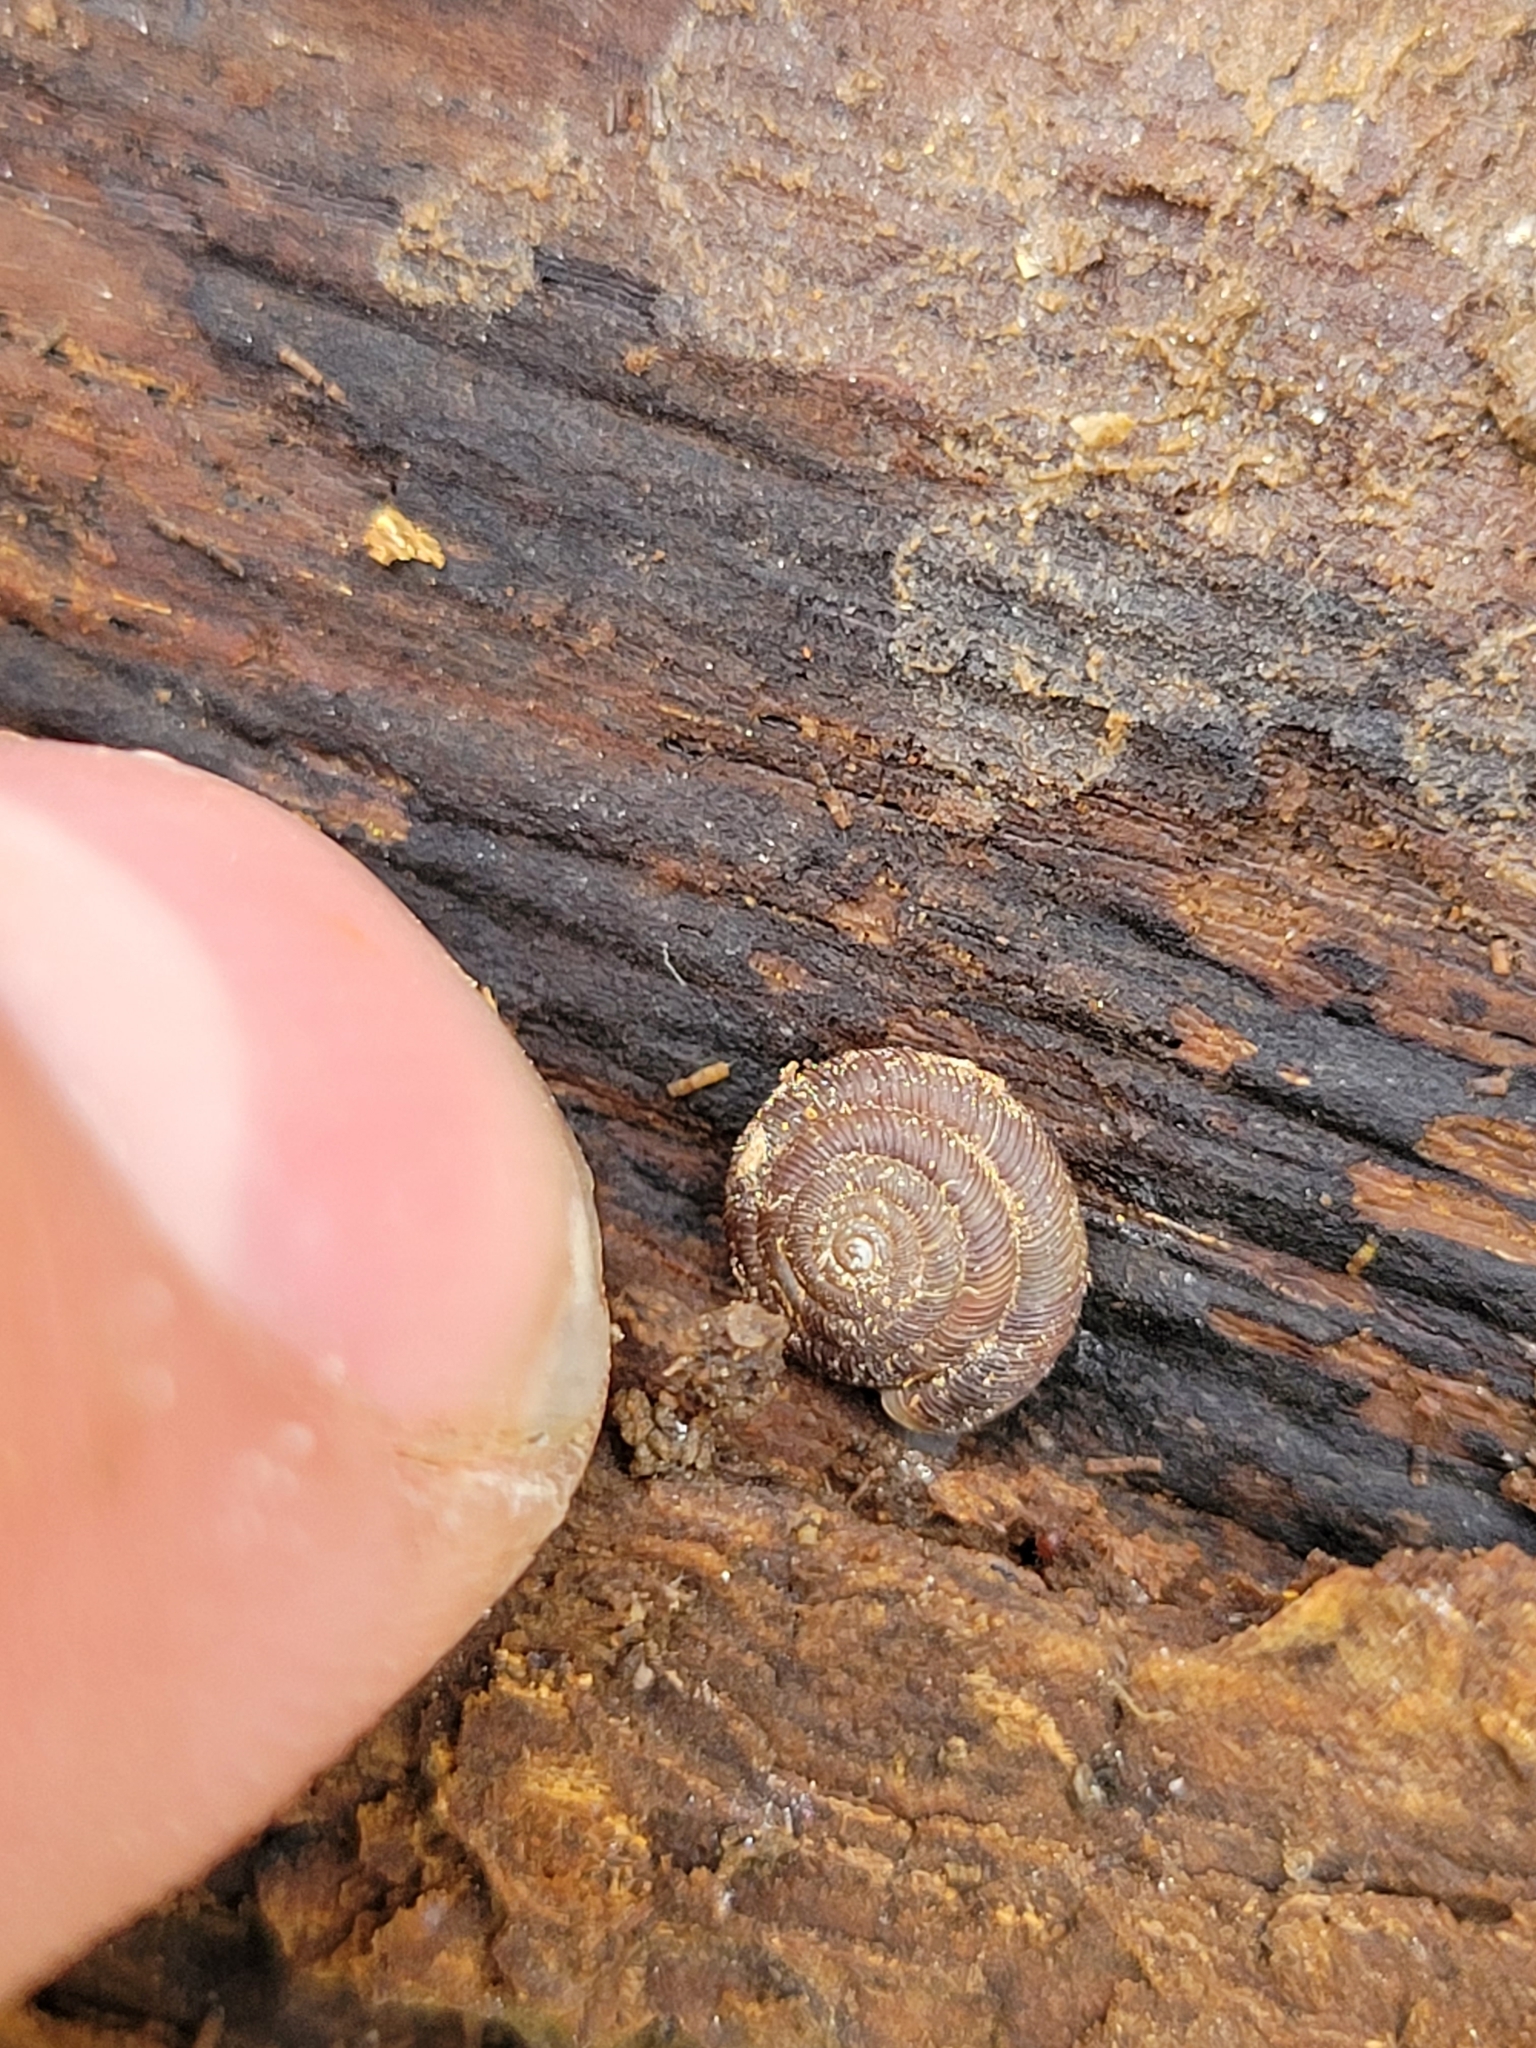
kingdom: Animalia
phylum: Mollusca
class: Gastropoda
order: Stylommatophora
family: Discidae
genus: Discus
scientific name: Discus rotundatus
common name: Rounded snail
